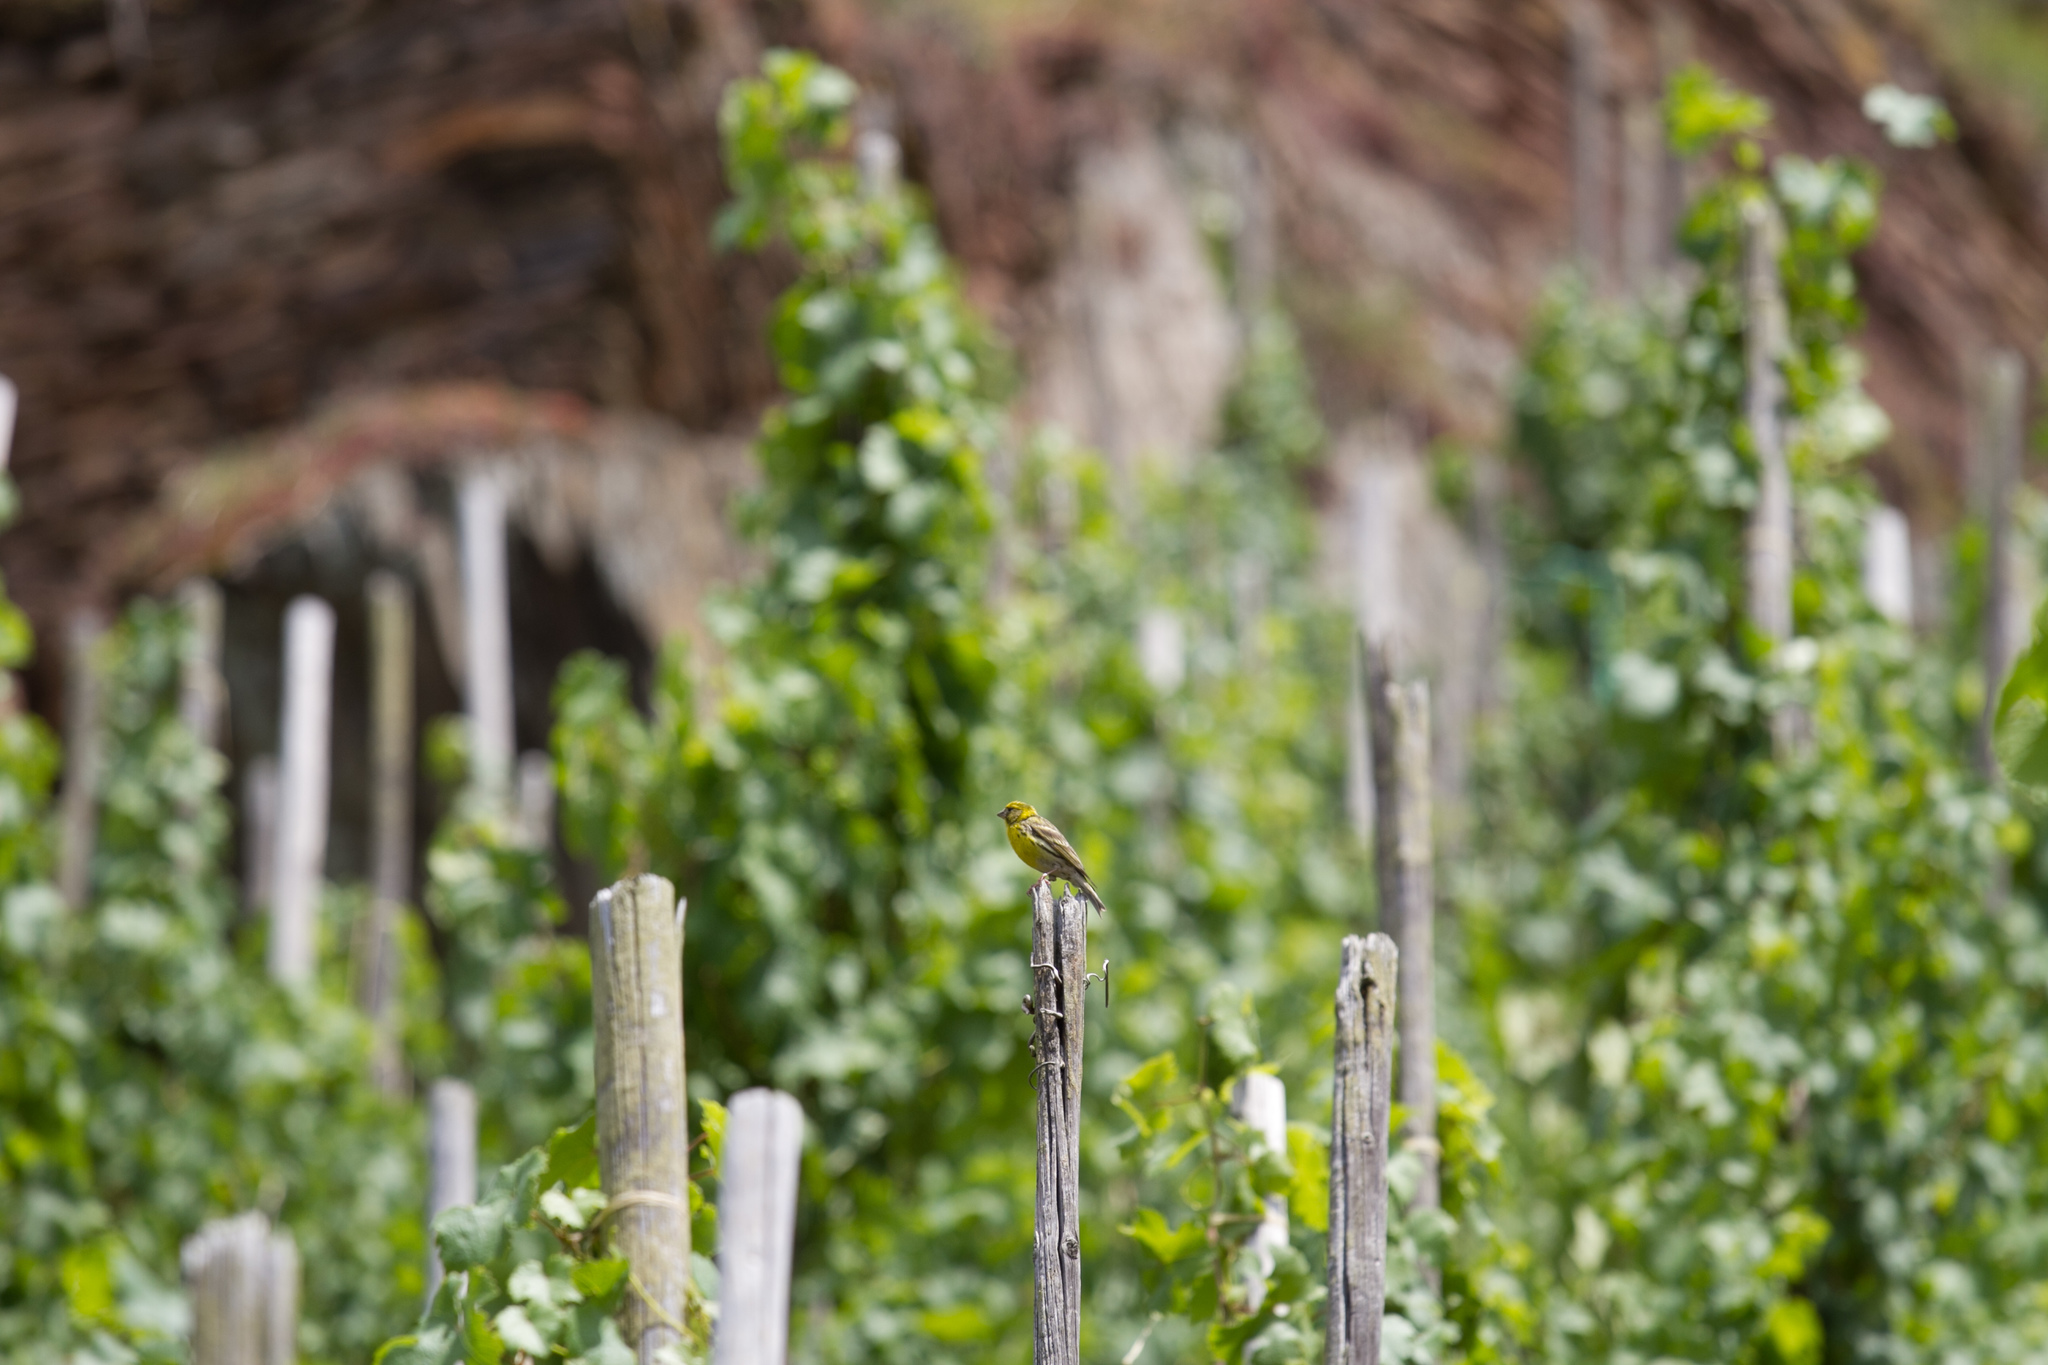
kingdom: Animalia
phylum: Chordata
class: Aves
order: Passeriformes
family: Fringillidae
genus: Serinus
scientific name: Serinus serinus
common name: European serin
